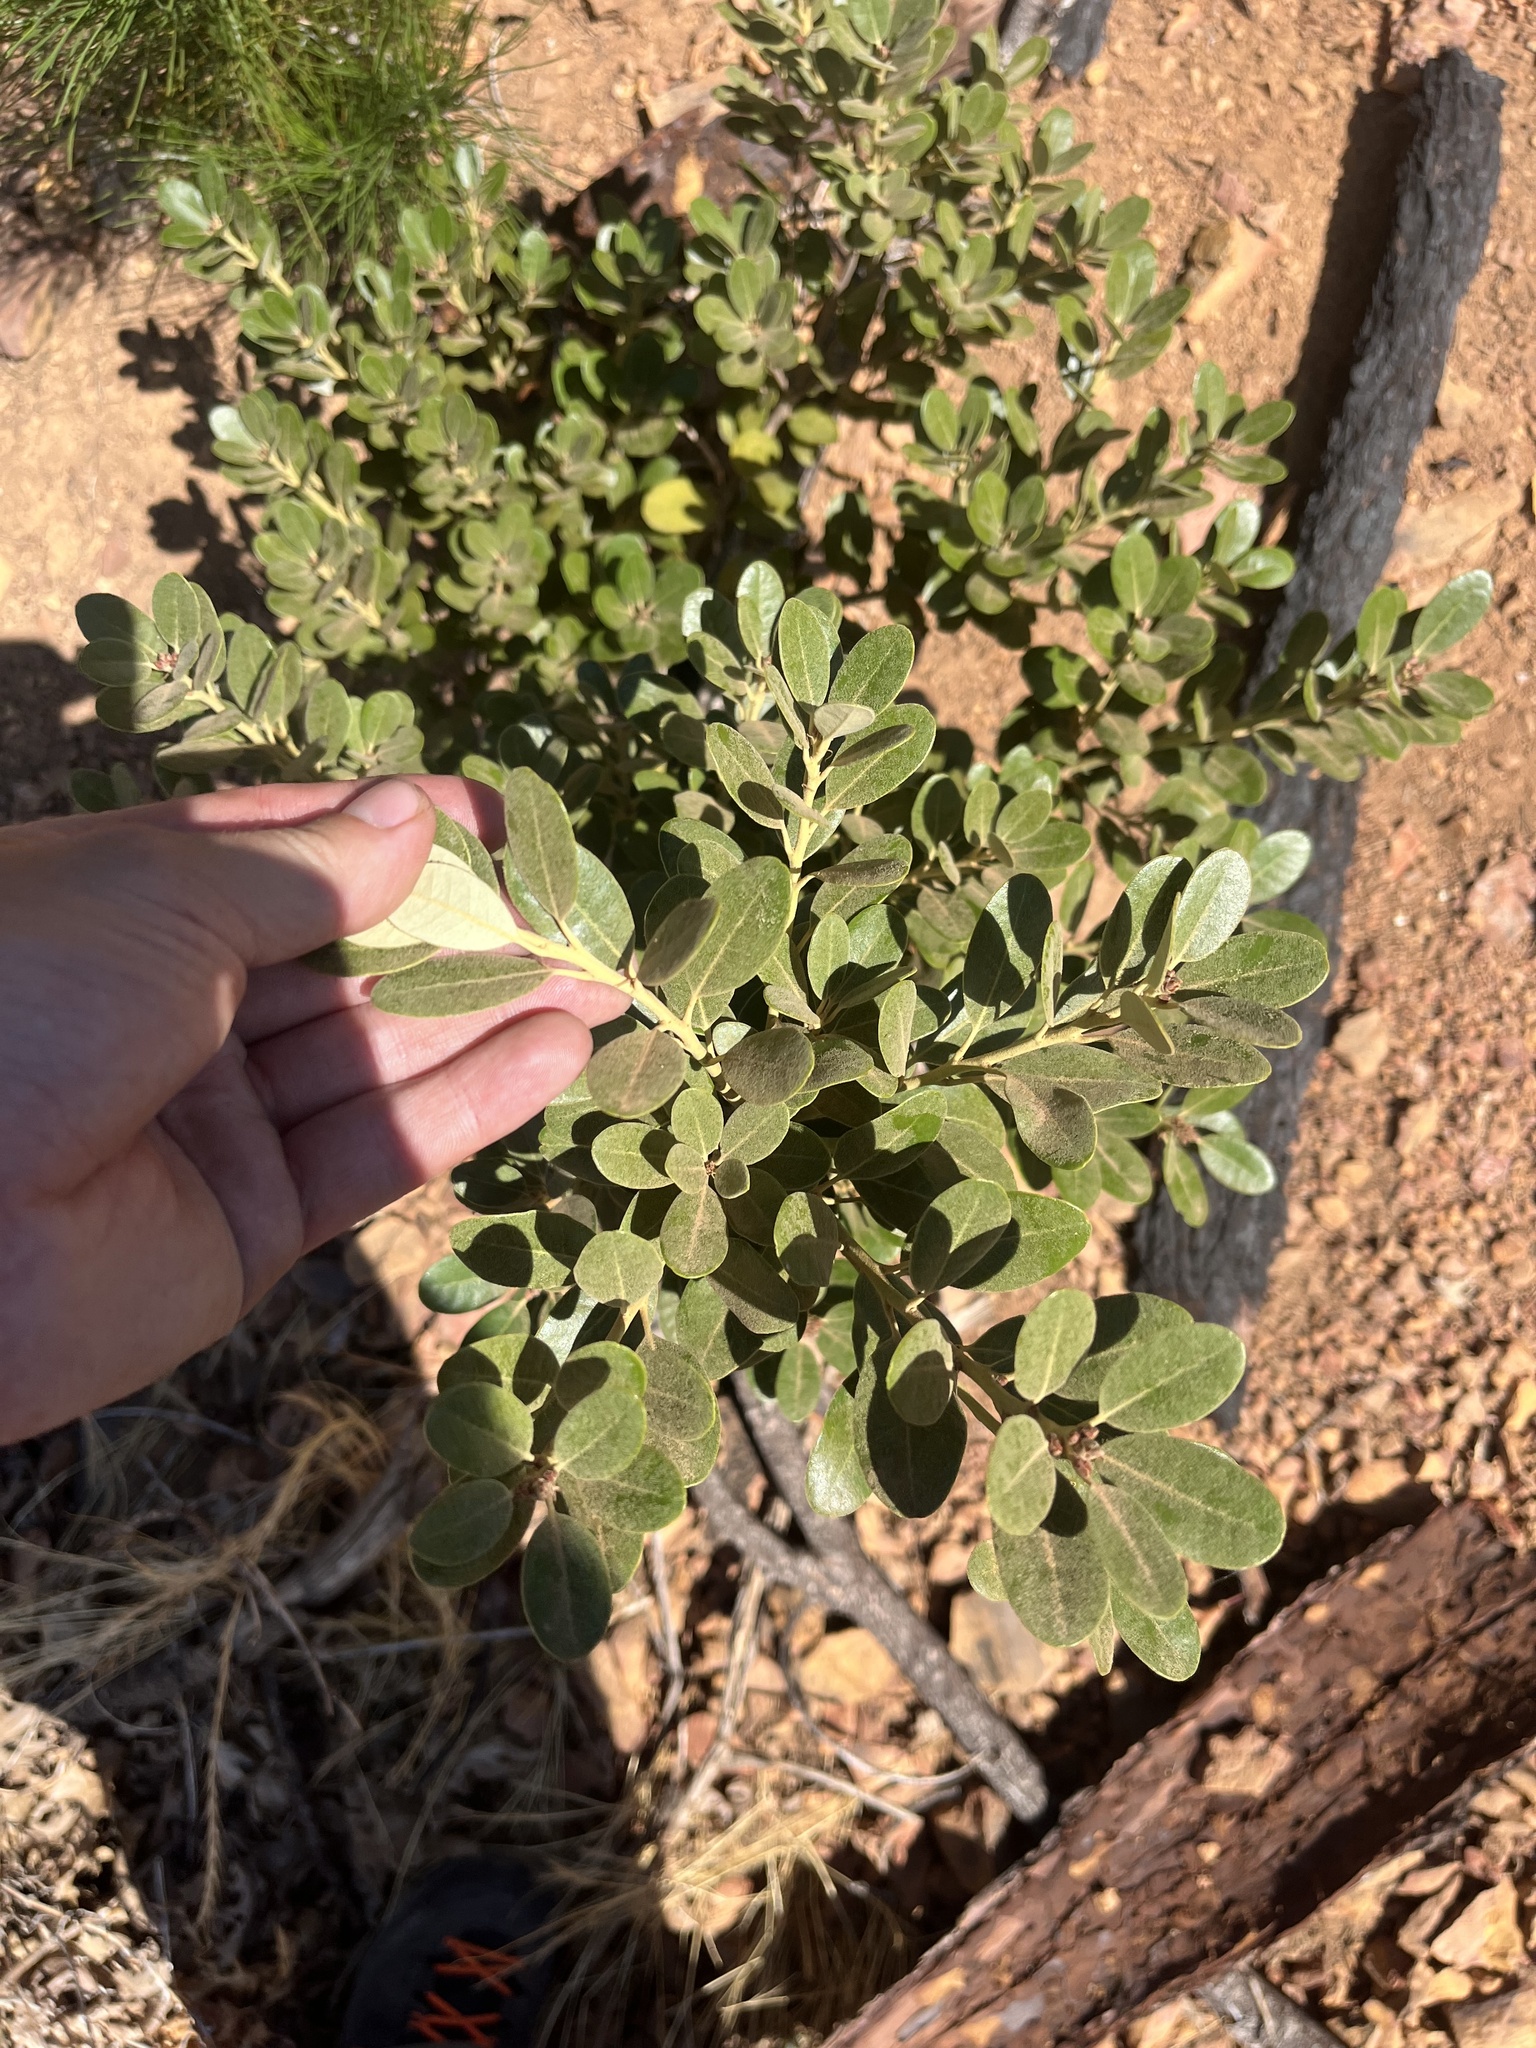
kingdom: Plantae
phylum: Tracheophyta
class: Magnoliopsida
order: Fagales
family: Fagaceae
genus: Notholithocarpus
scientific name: Notholithocarpus densiflorus
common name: Tan bark oak
